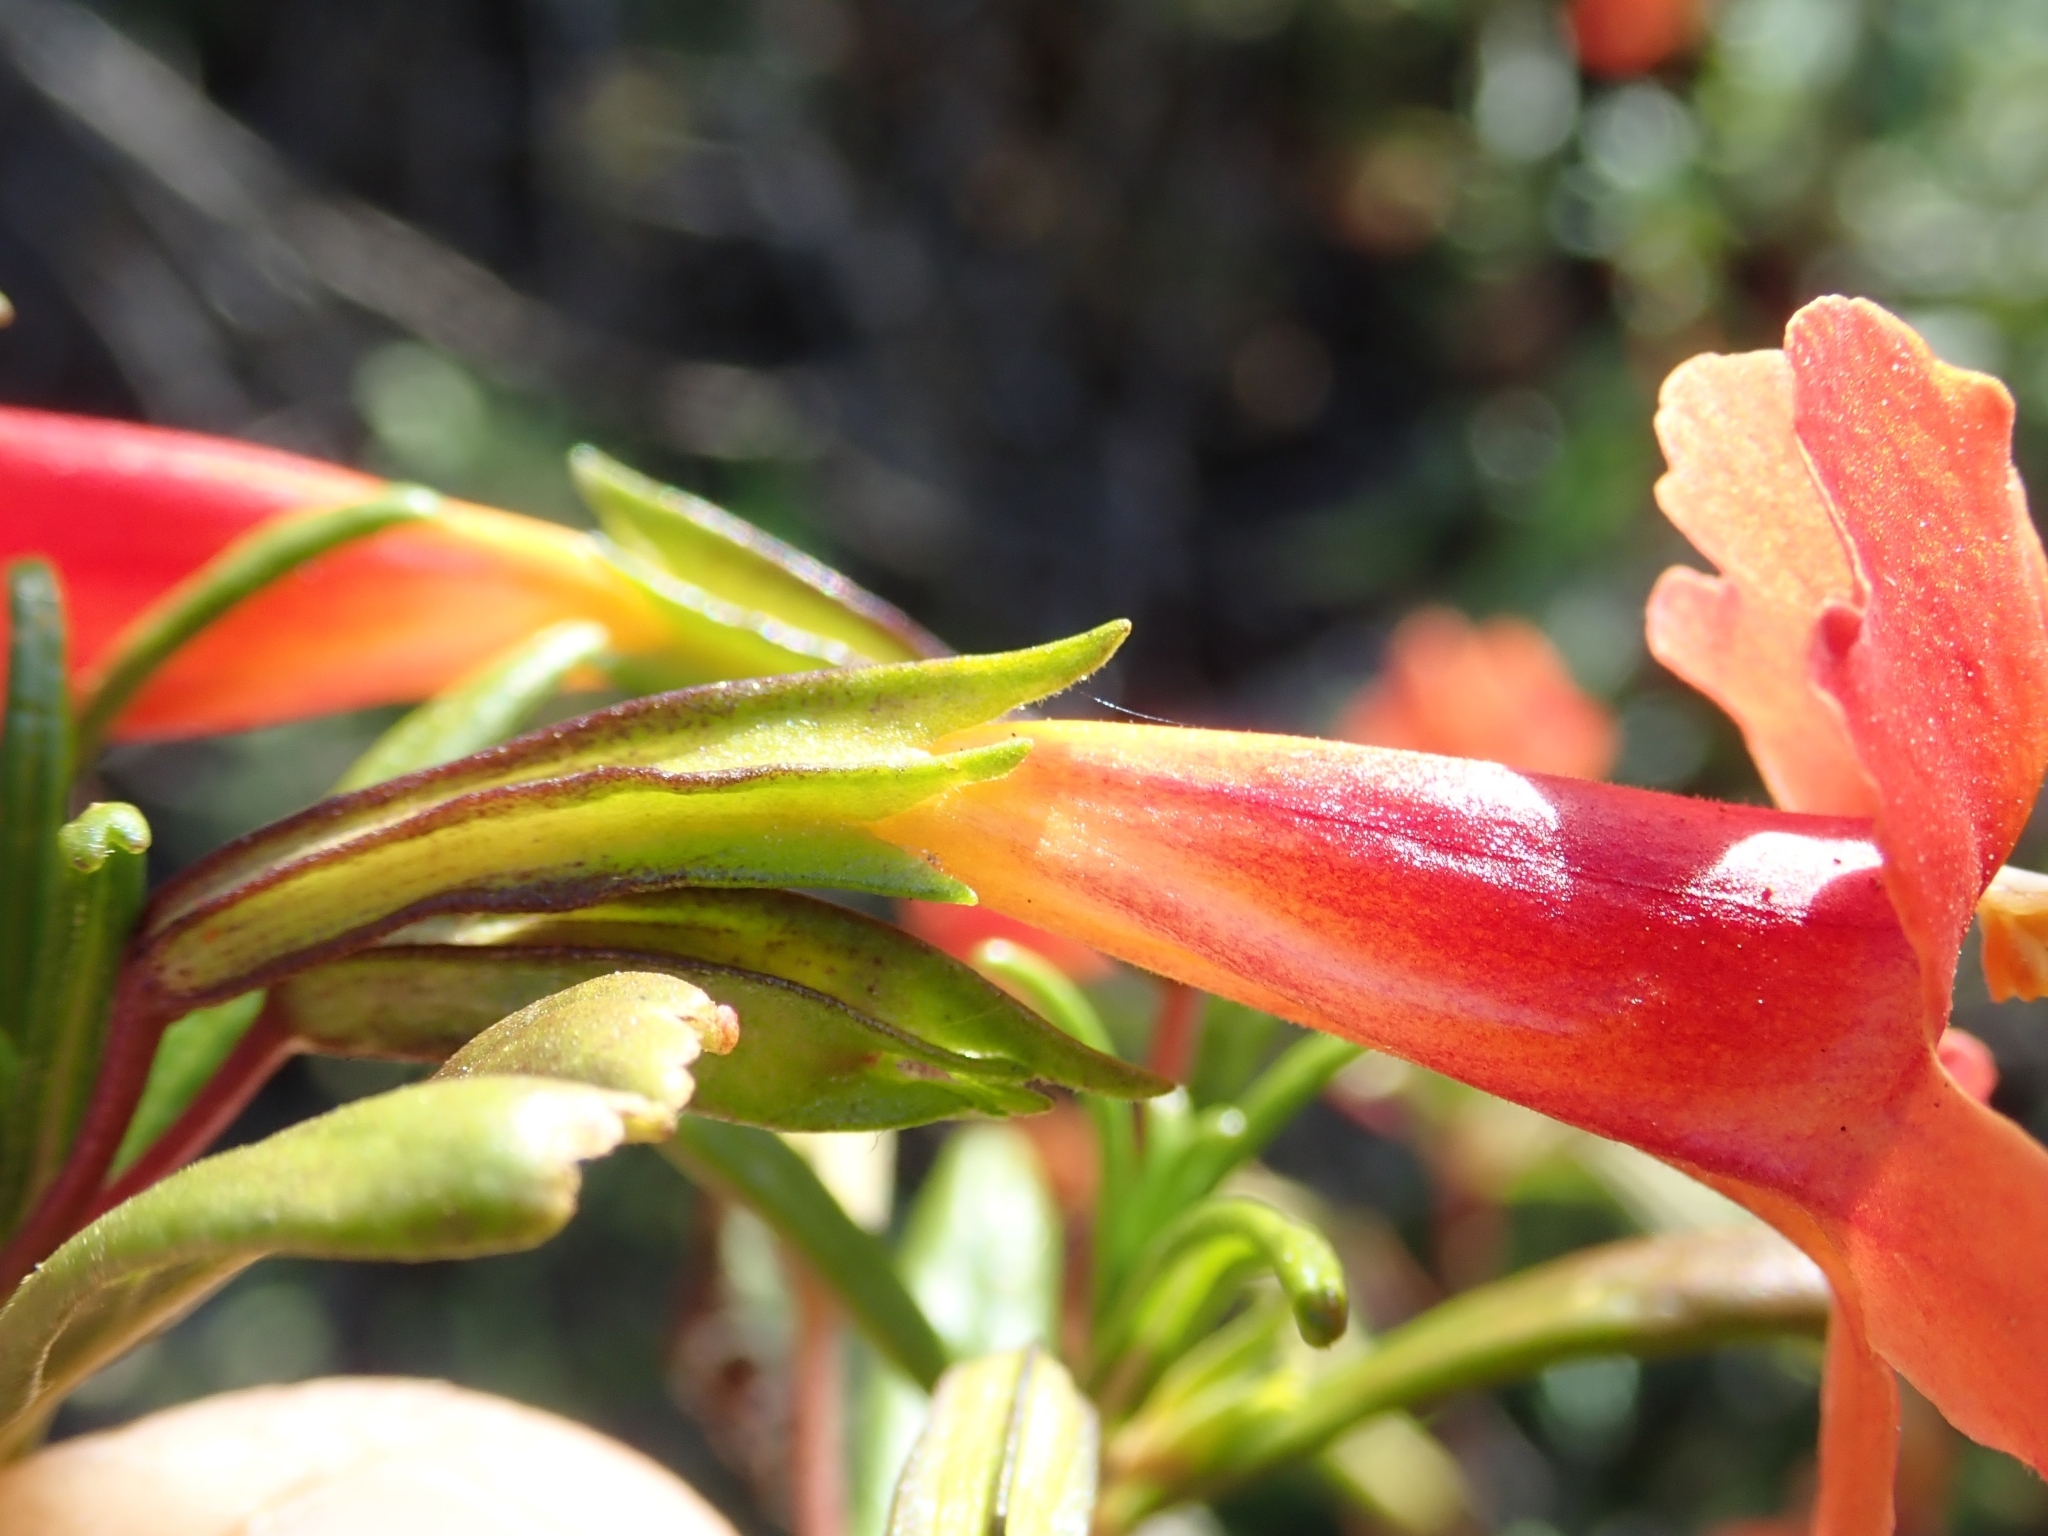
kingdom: Plantae
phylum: Tracheophyta
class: Magnoliopsida
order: Lamiales
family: Phrymaceae
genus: Diplacus
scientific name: Diplacus puniceus
